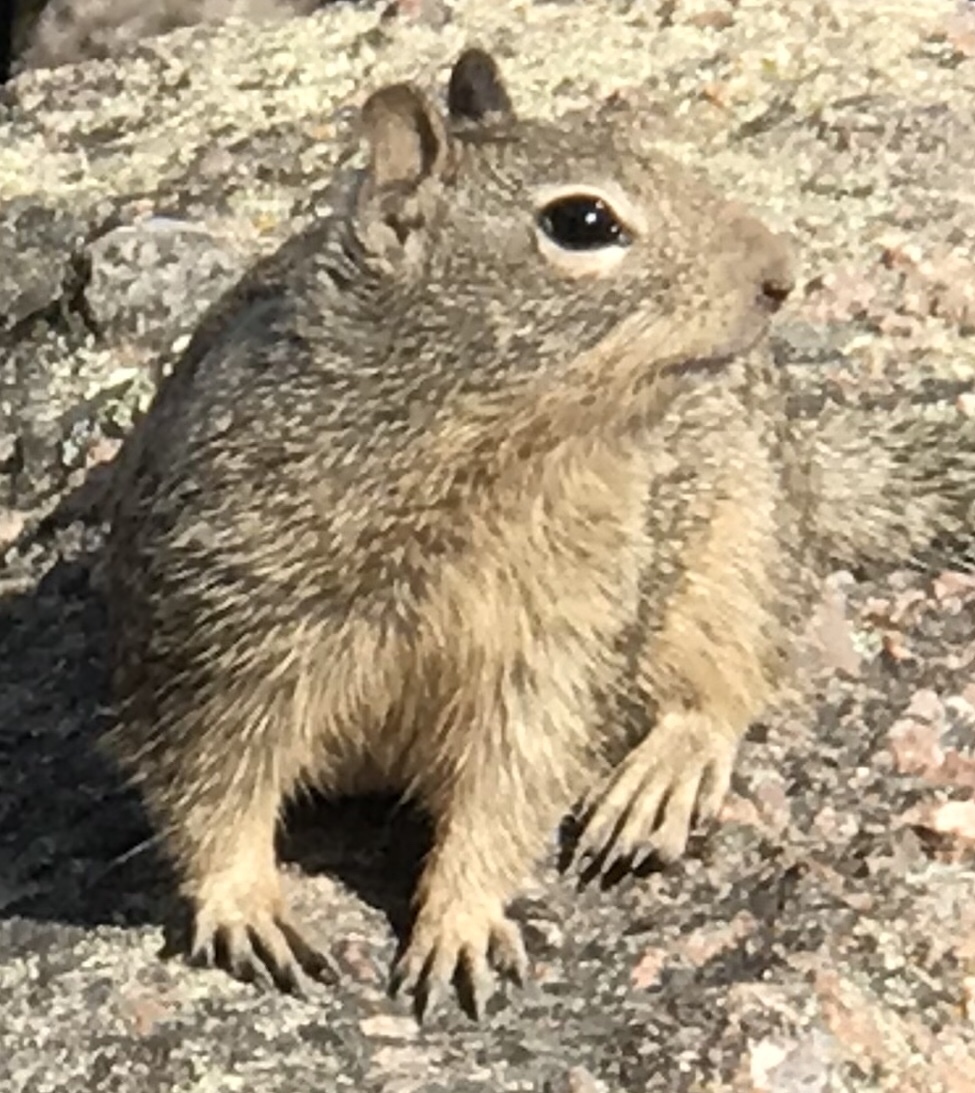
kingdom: Animalia
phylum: Chordata
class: Mammalia
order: Rodentia
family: Sciuridae
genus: Otospermophilus
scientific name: Otospermophilus beecheyi
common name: California ground squirrel
